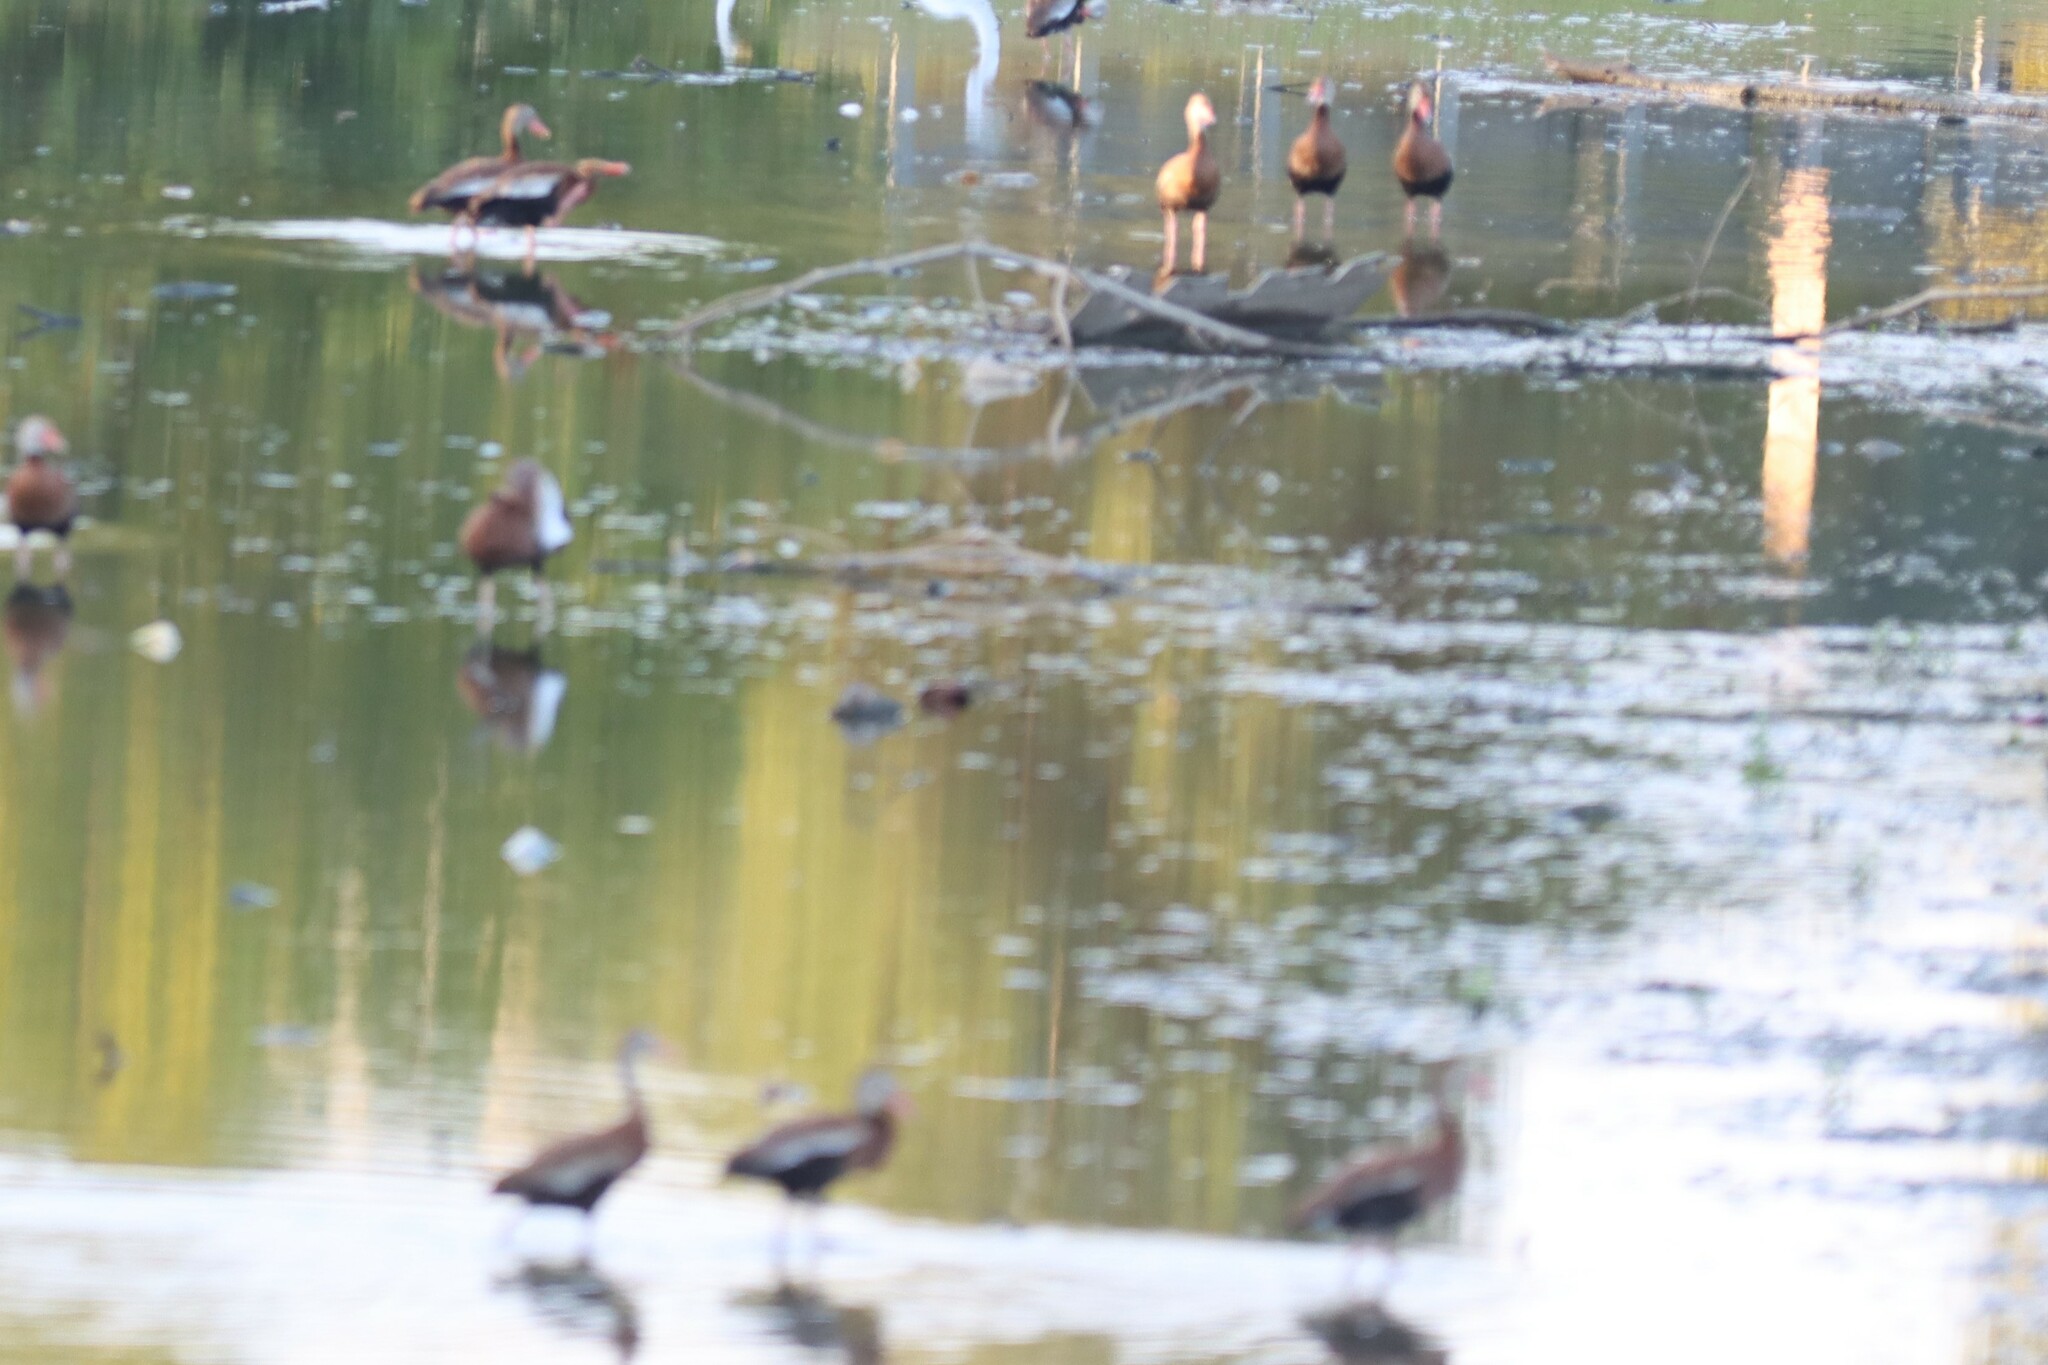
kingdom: Animalia
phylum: Chordata
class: Aves
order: Anseriformes
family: Anatidae
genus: Dendrocygna
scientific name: Dendrocygna autumnalis
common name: Black-bellied whistling duck
